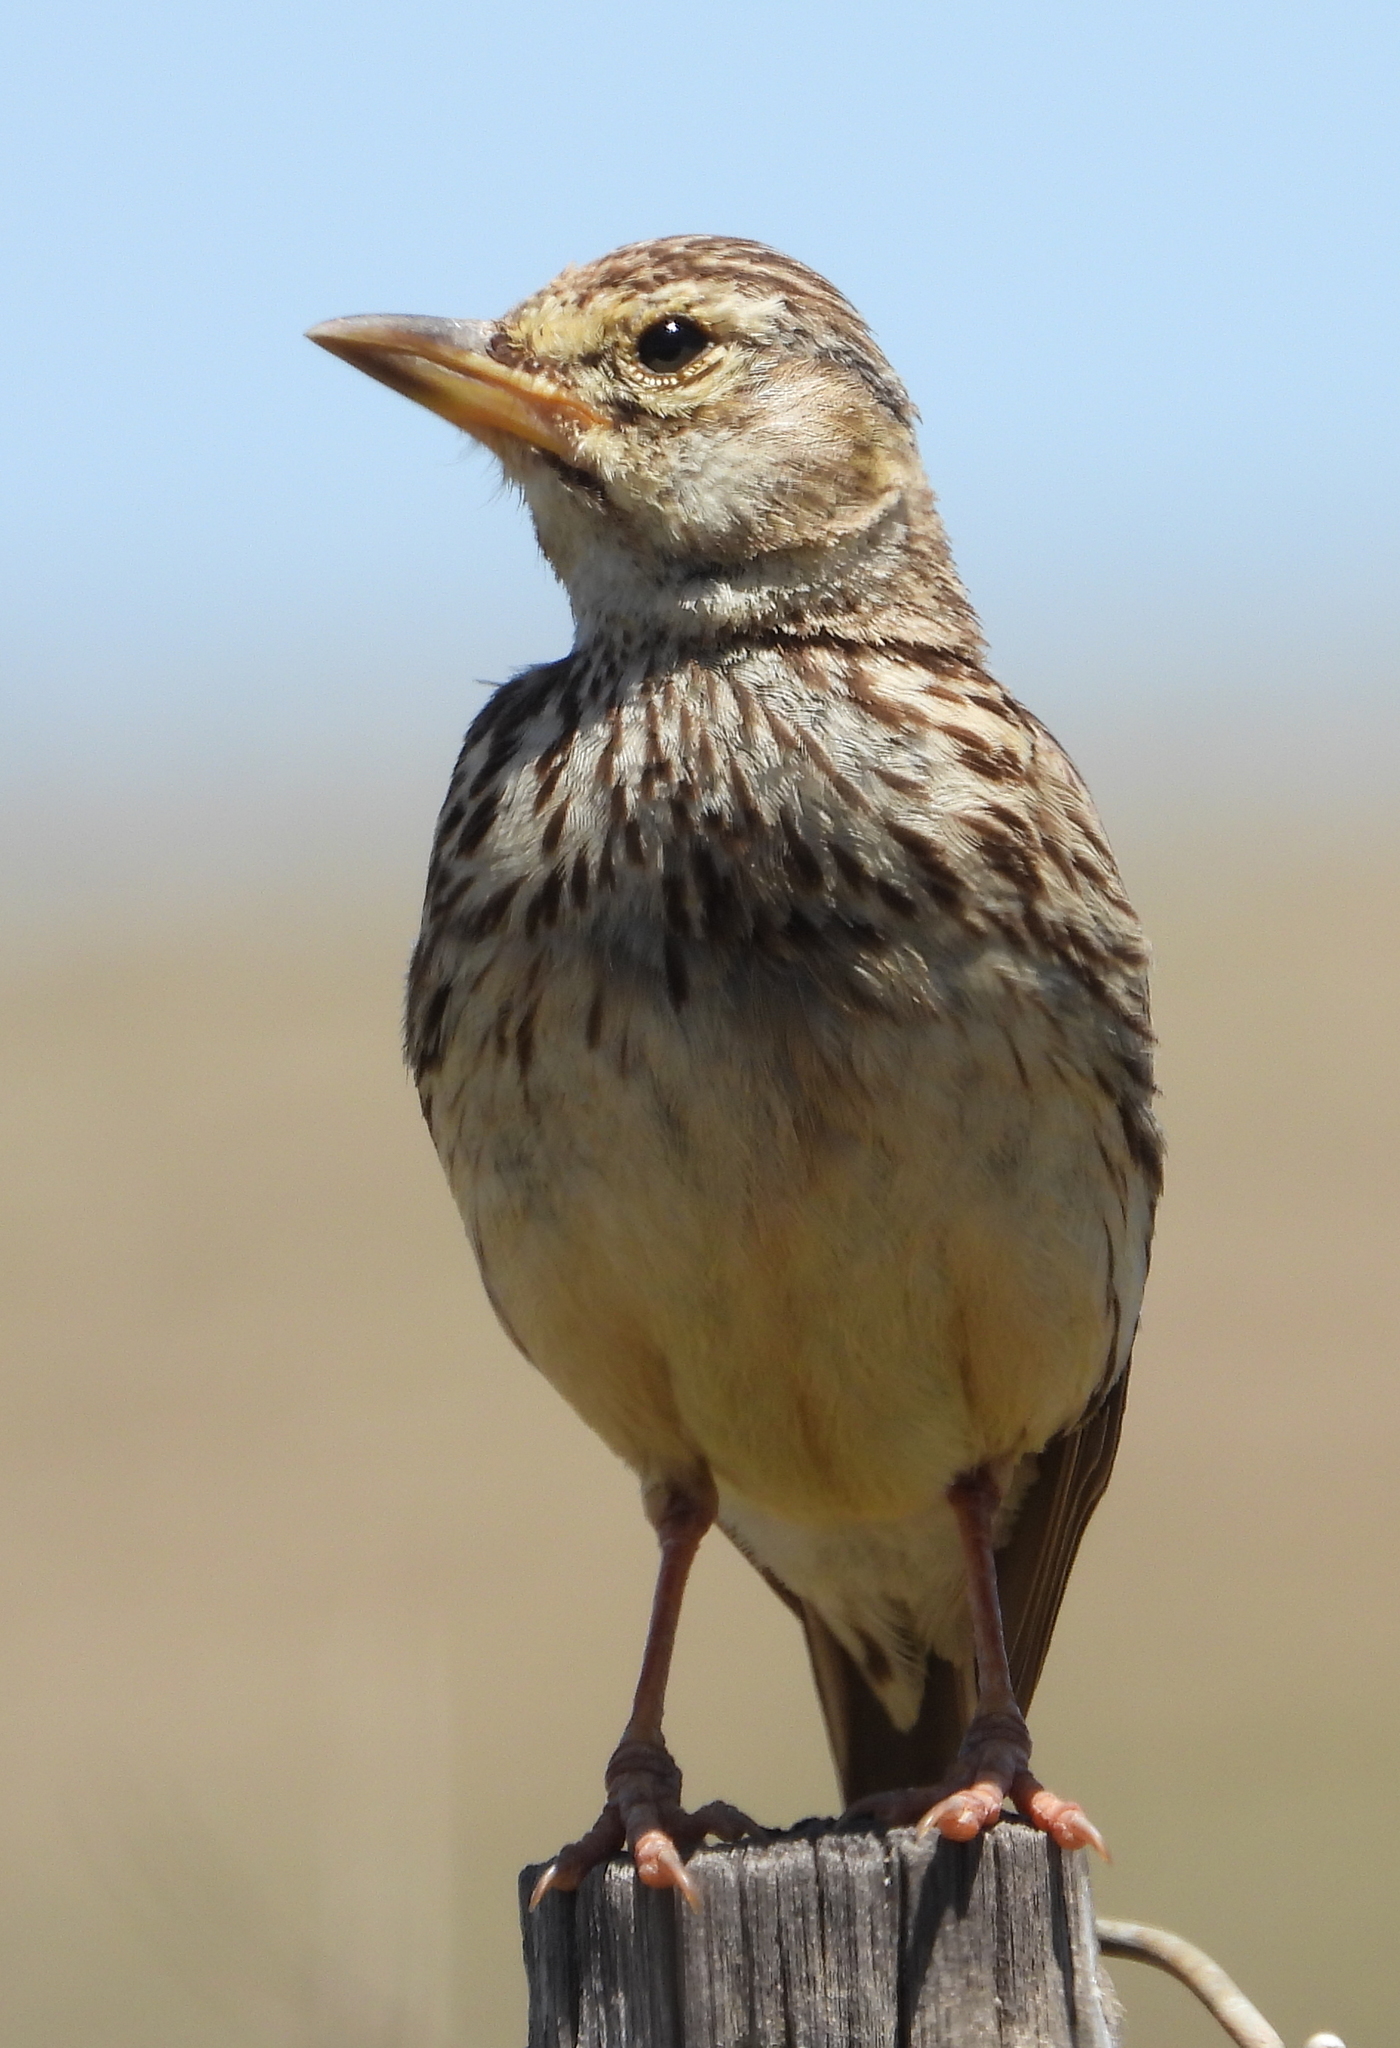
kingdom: Animalia
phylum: Chordata
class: Aves
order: Passeriformes
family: Alaudidae
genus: Galerida
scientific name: Galerida magnirostris
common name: Large-billed lark
